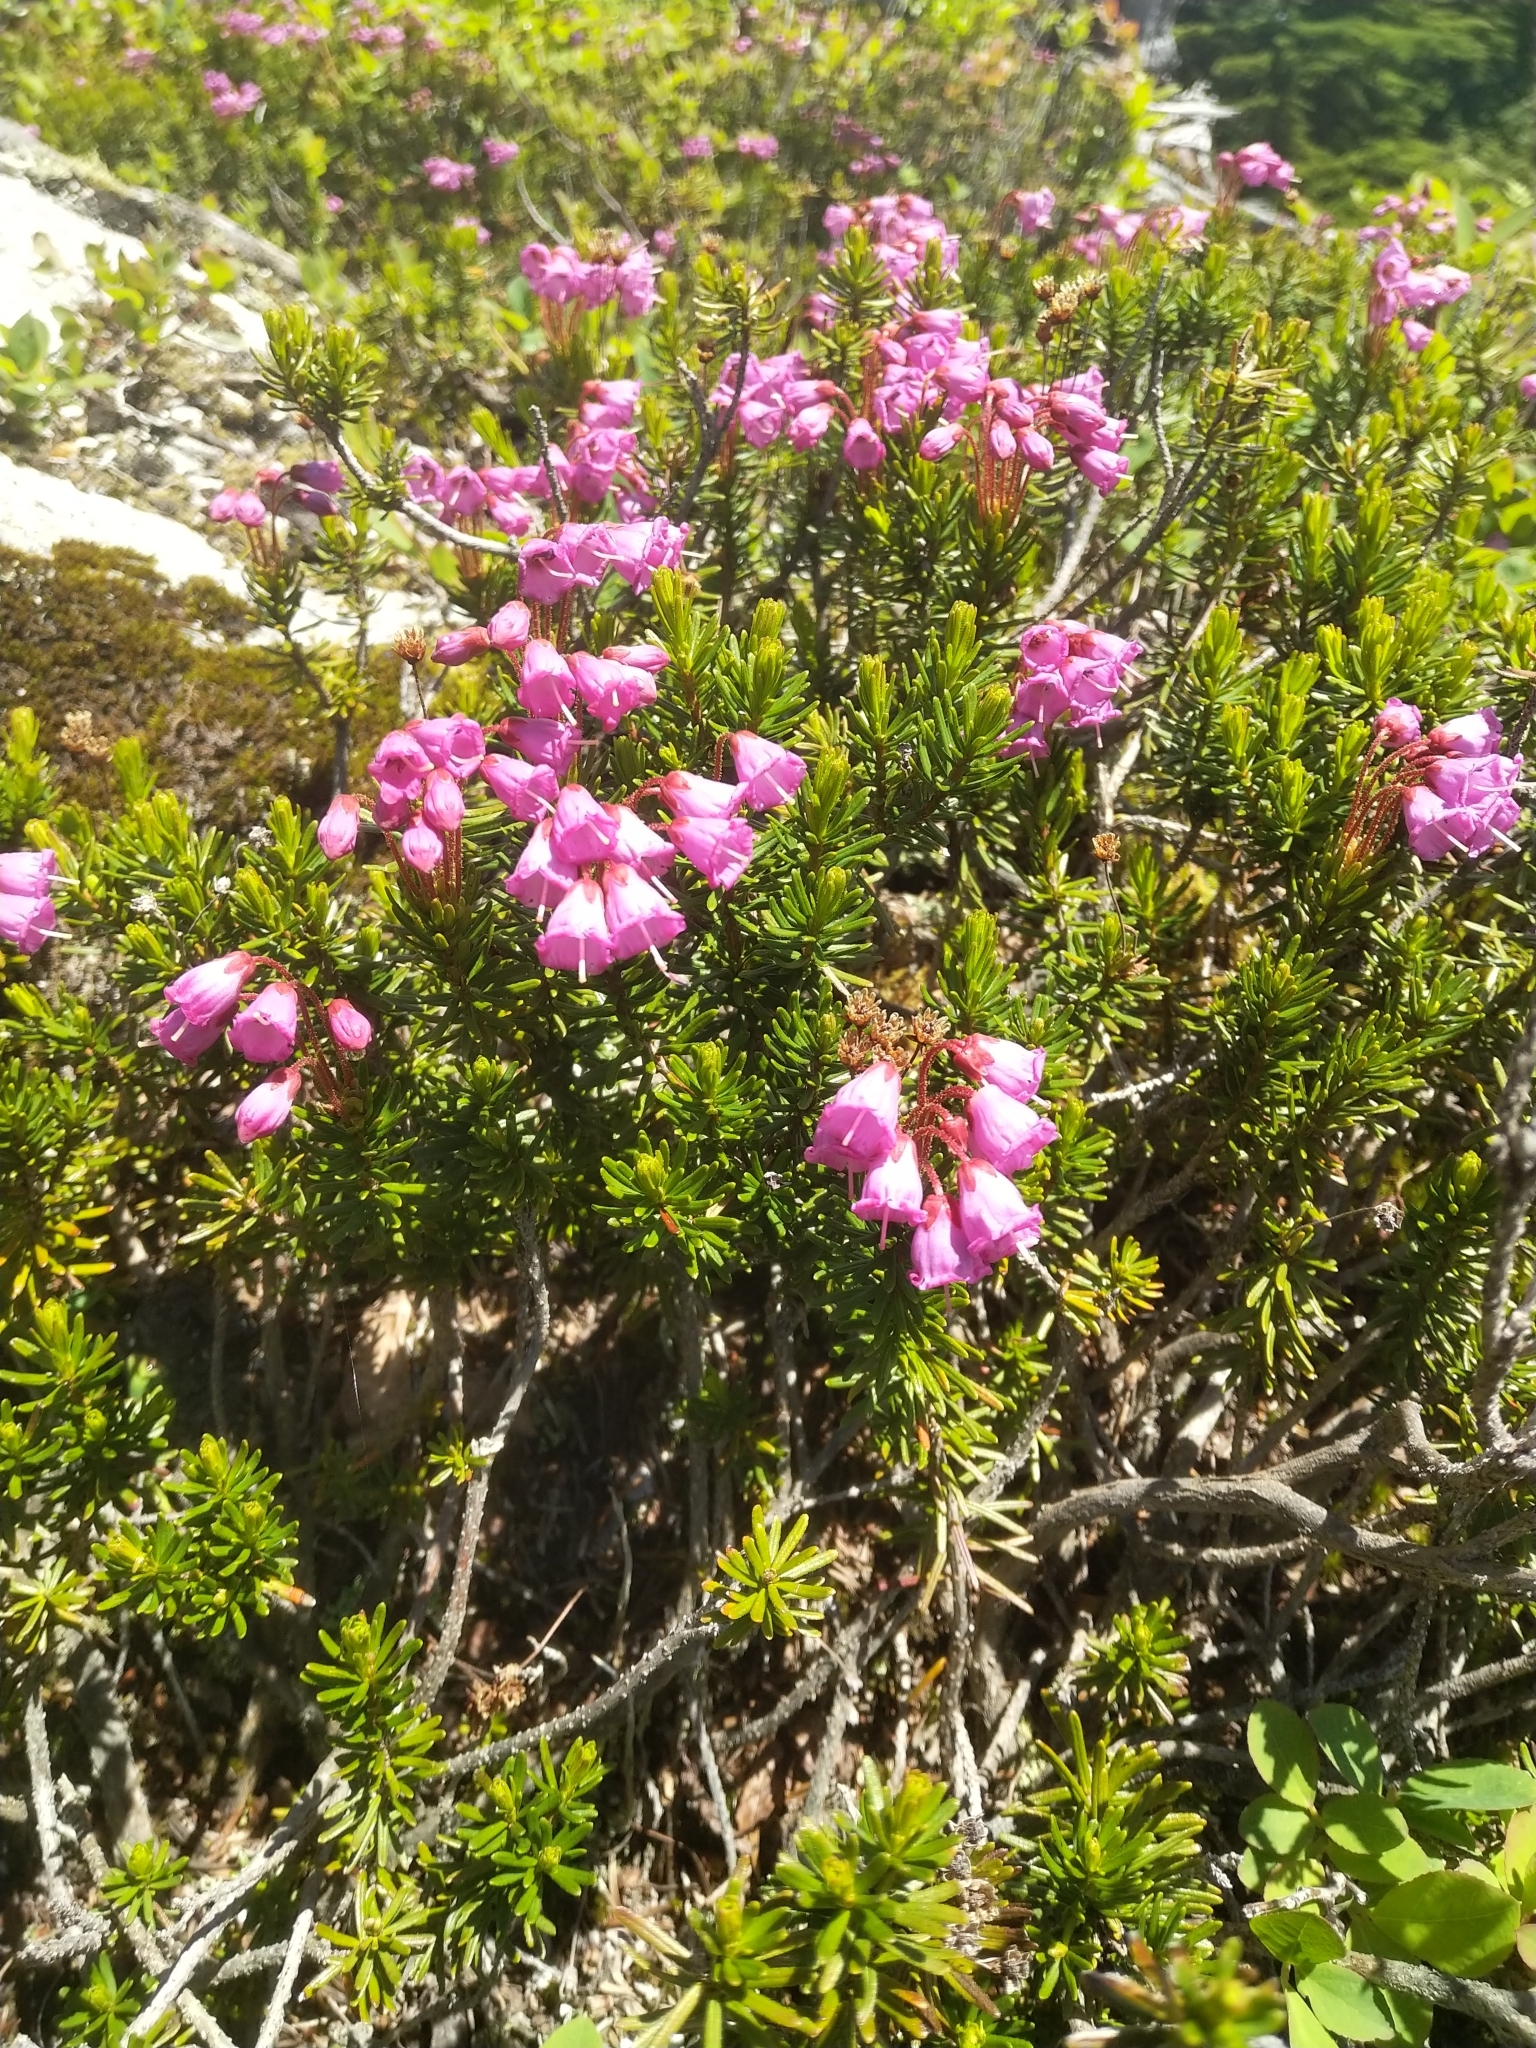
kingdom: Plantae
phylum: Tracheophyta
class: Magnoliopsida
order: Ericales
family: Ericaceae
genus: Phyllodoce
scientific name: Phyllodoce empetriformis
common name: Pink mountain heather
